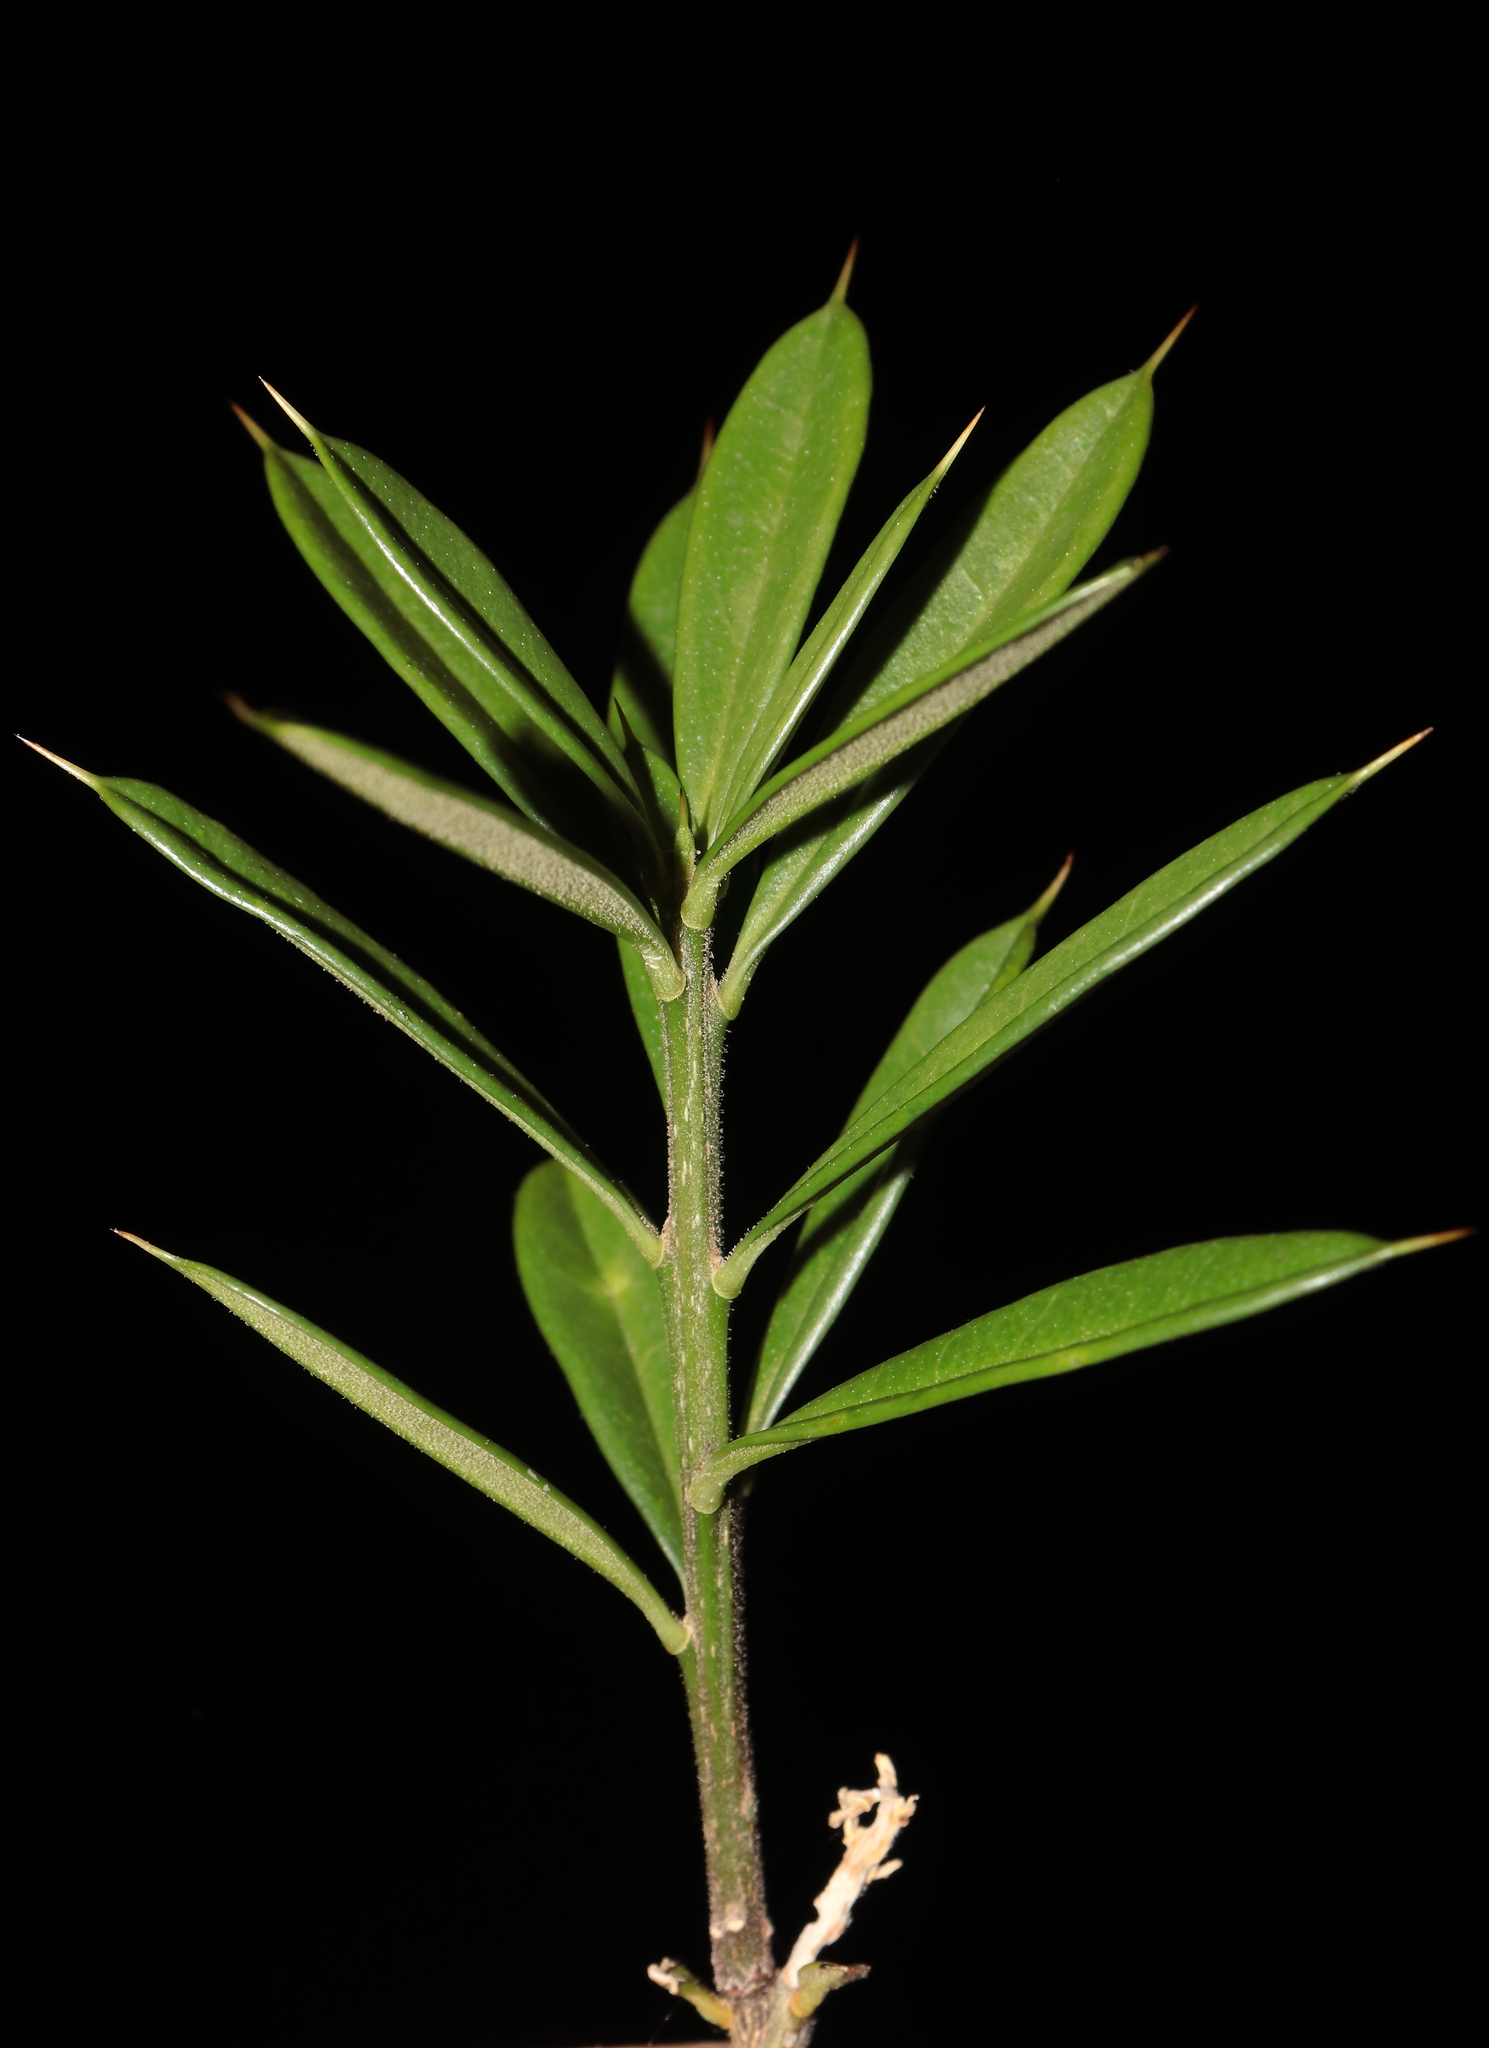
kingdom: Plantae
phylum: Tracheophyta
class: Magnoliopsida
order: Ericales
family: Primulaceae
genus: Bonellia
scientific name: Bonellia mucronata
